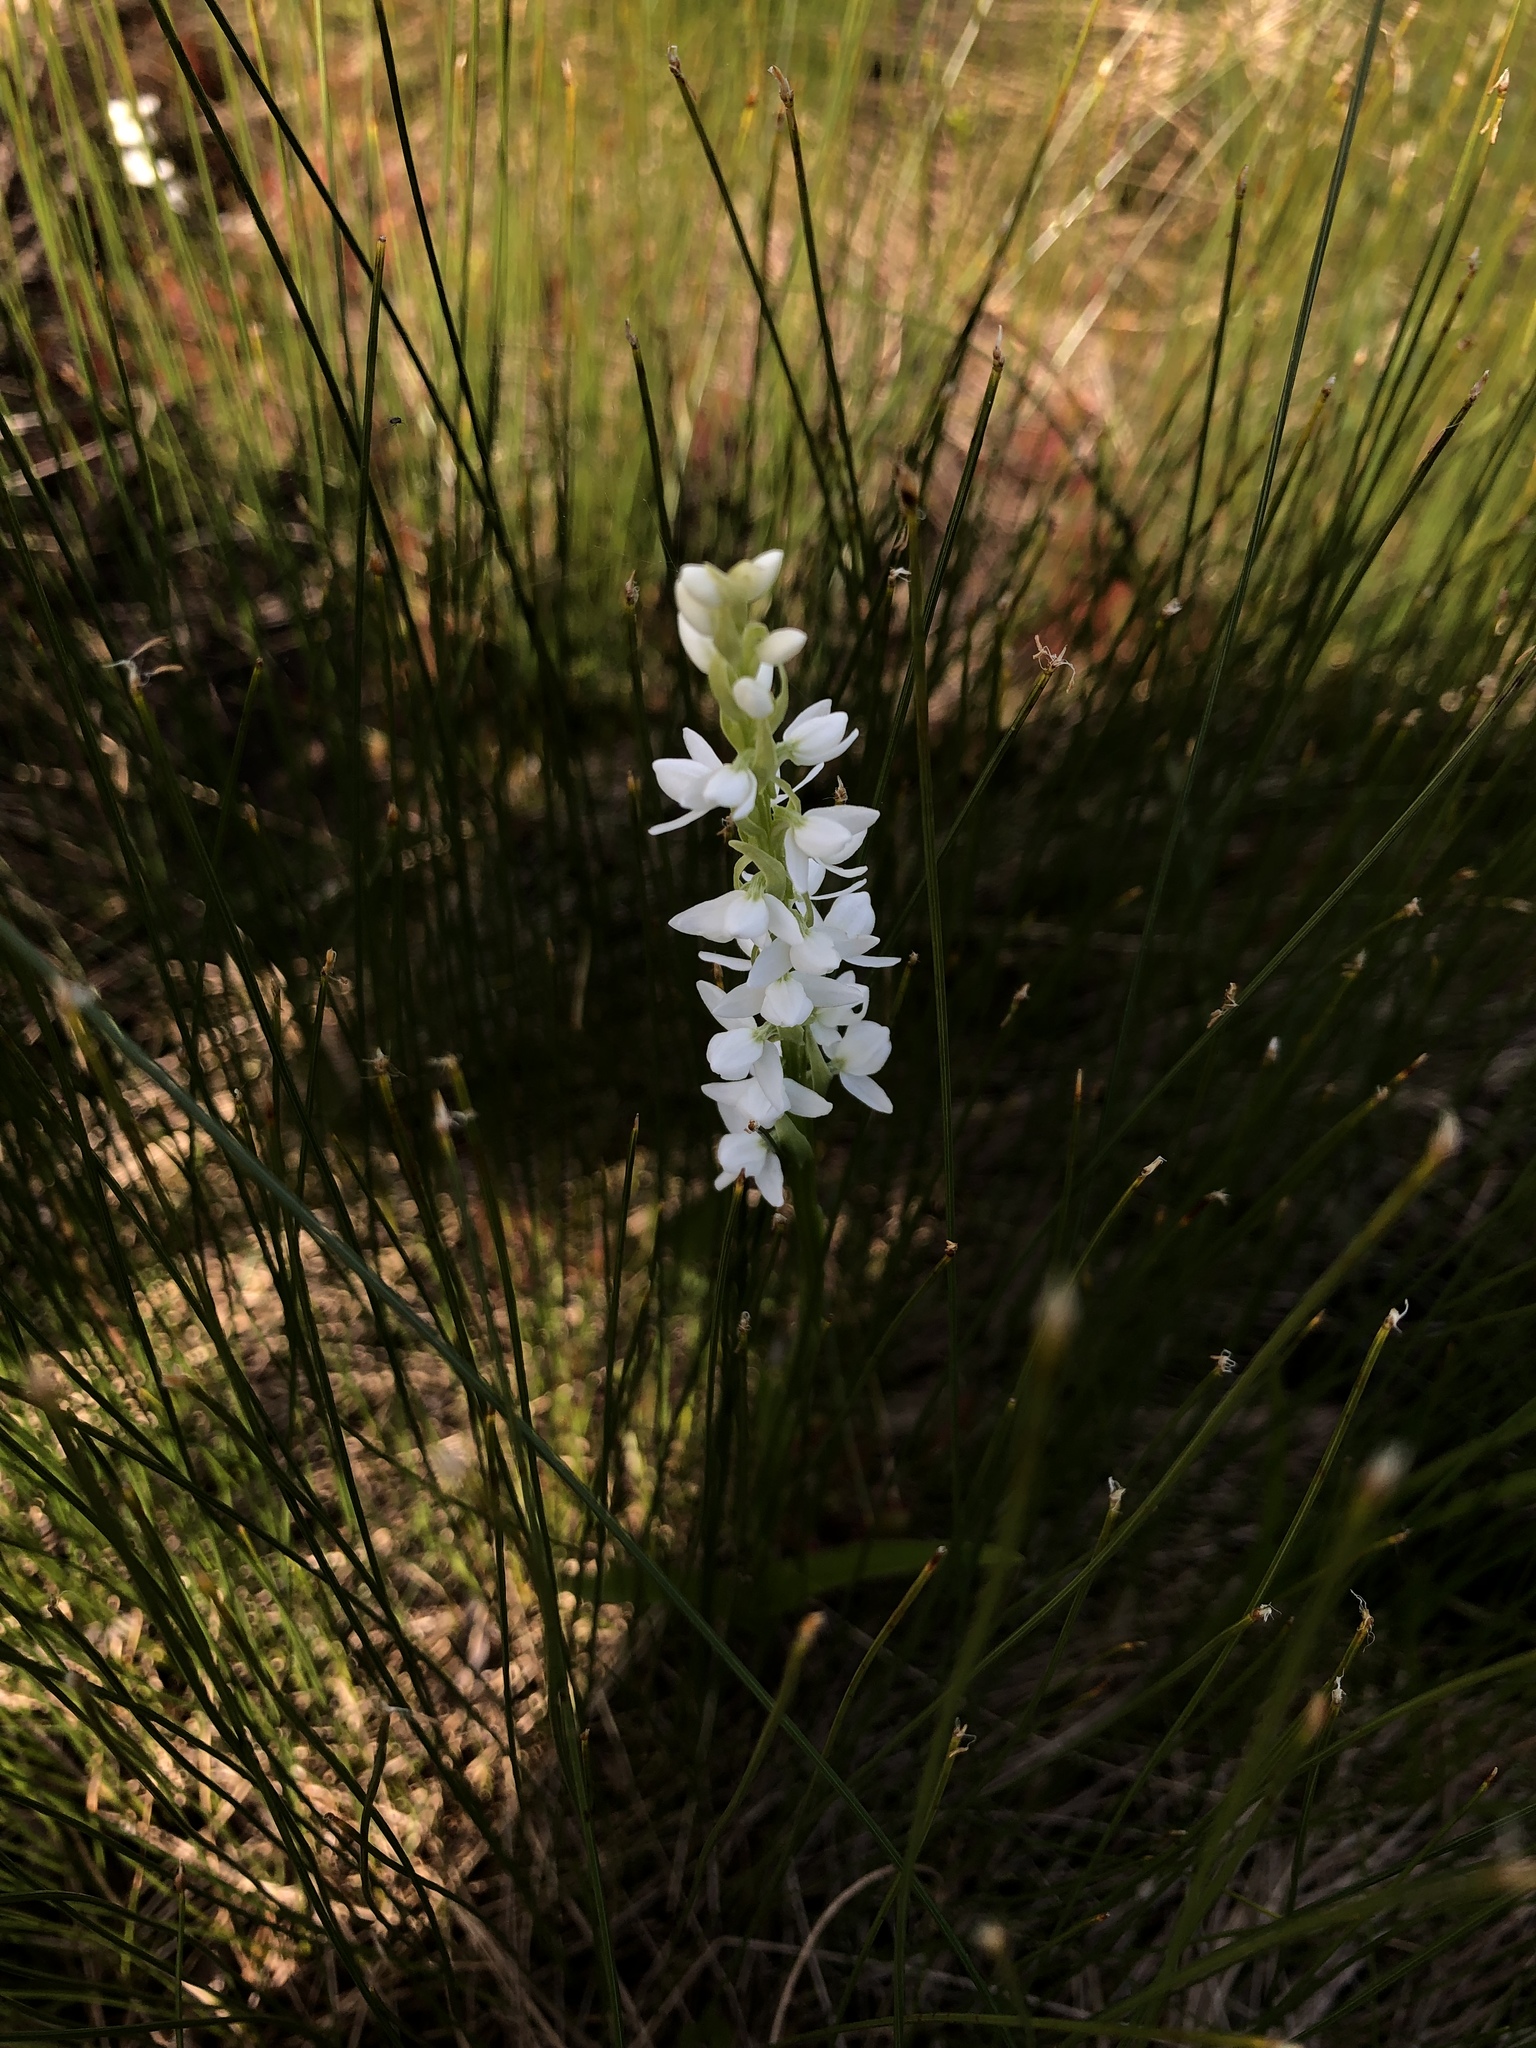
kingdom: Plantae
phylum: Tracheophyta
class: Liliopsida
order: Asparagales
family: Orchidaceae
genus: Platanthera
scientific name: Platanthera dilatata
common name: Bog candles
